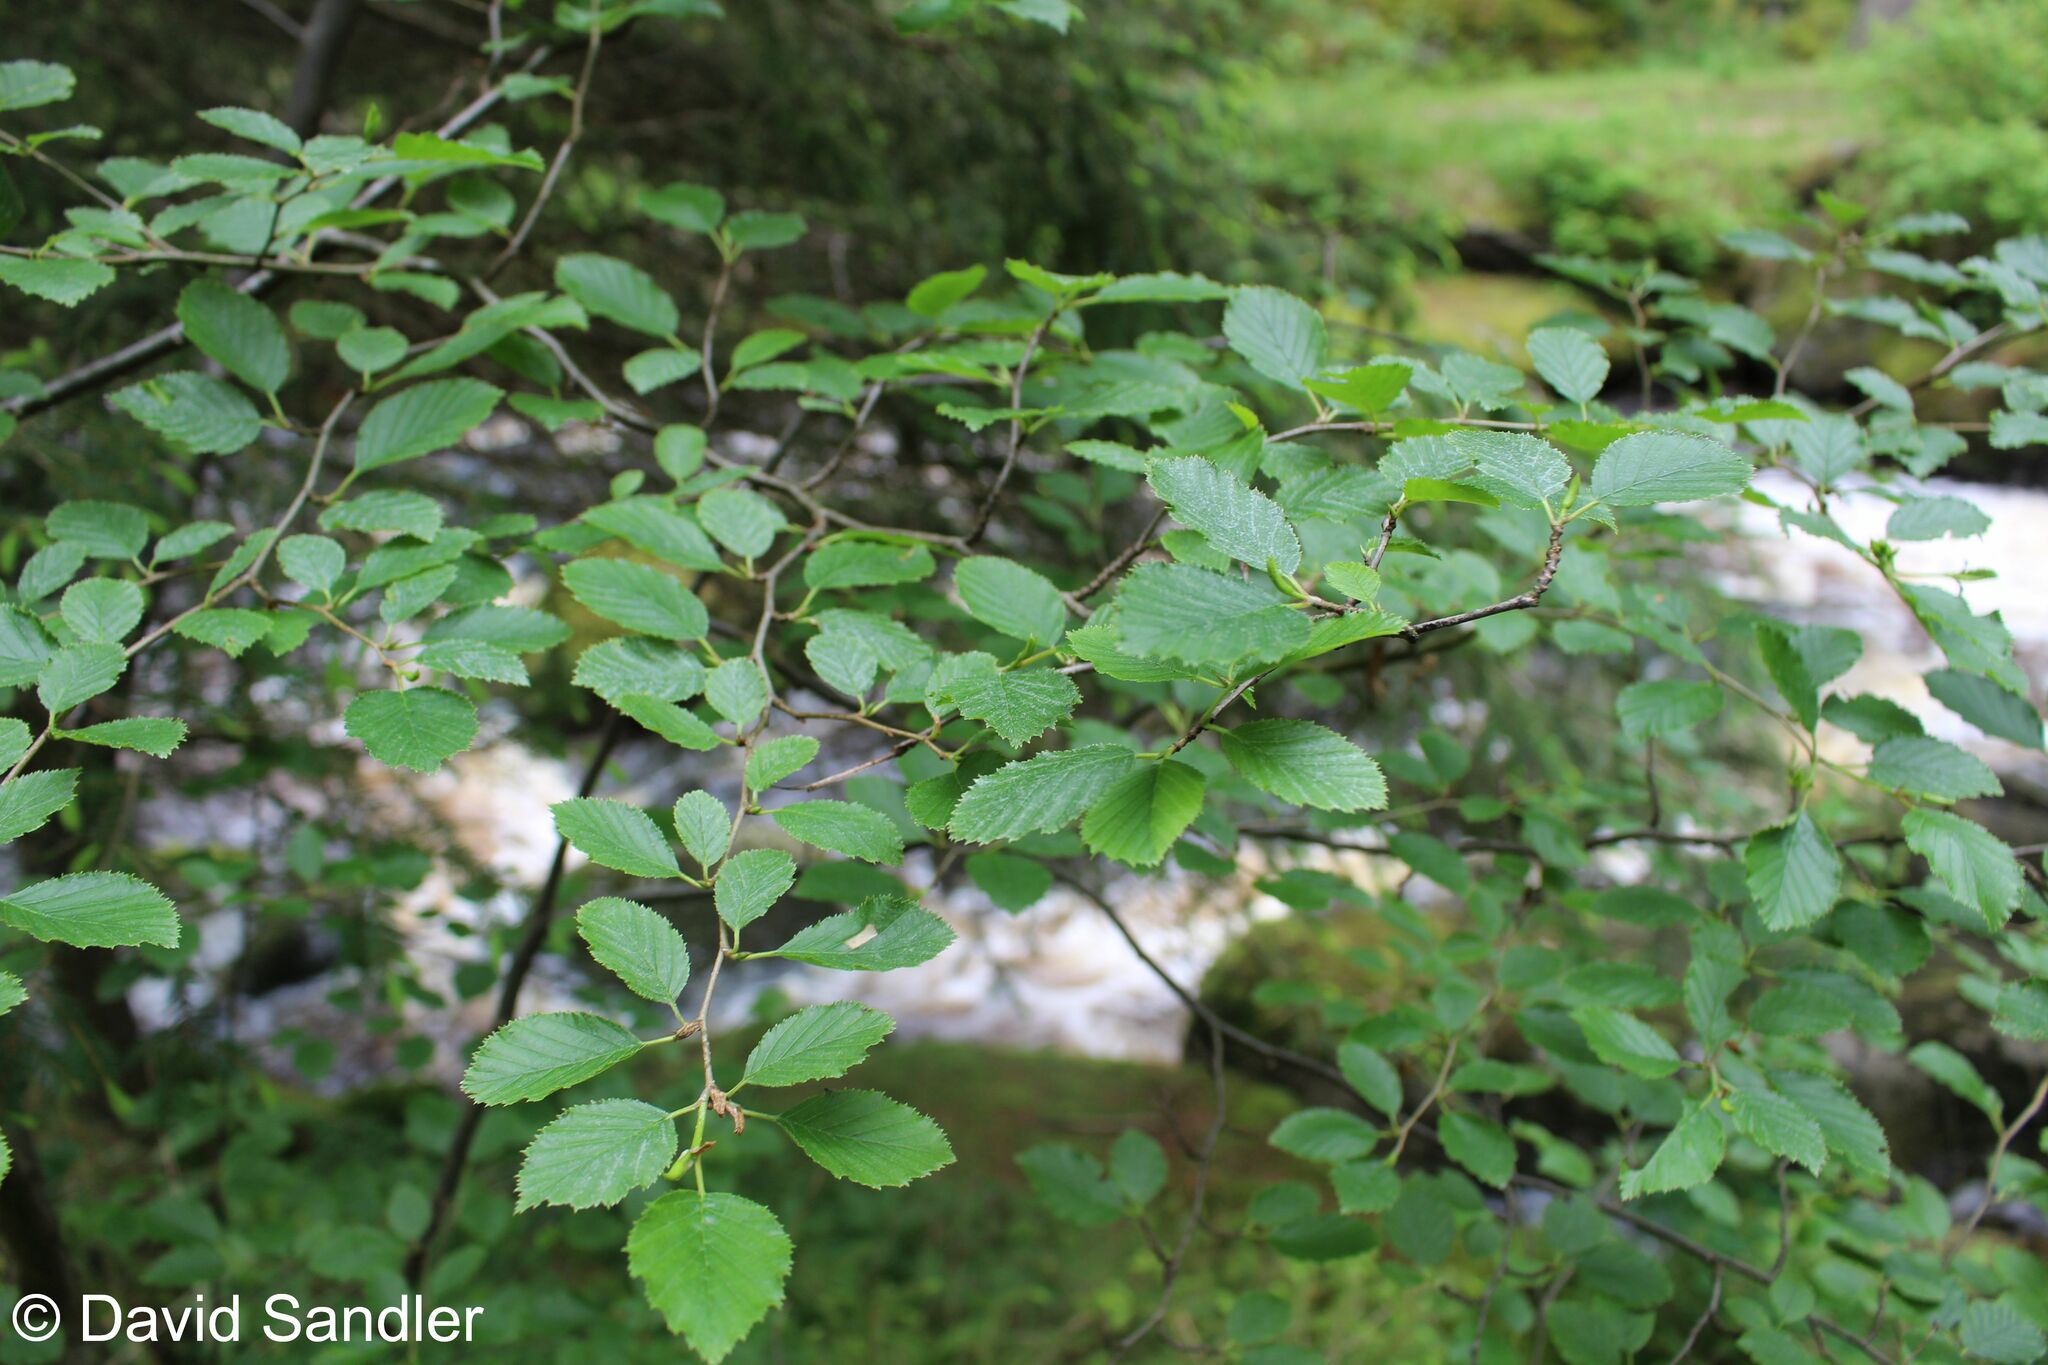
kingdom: Plantae
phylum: Tracheophyta
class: Magnoliopsida
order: Fagales
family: Betulaceae
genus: Alnus
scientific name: Alnus alnobetula
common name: Green alder
